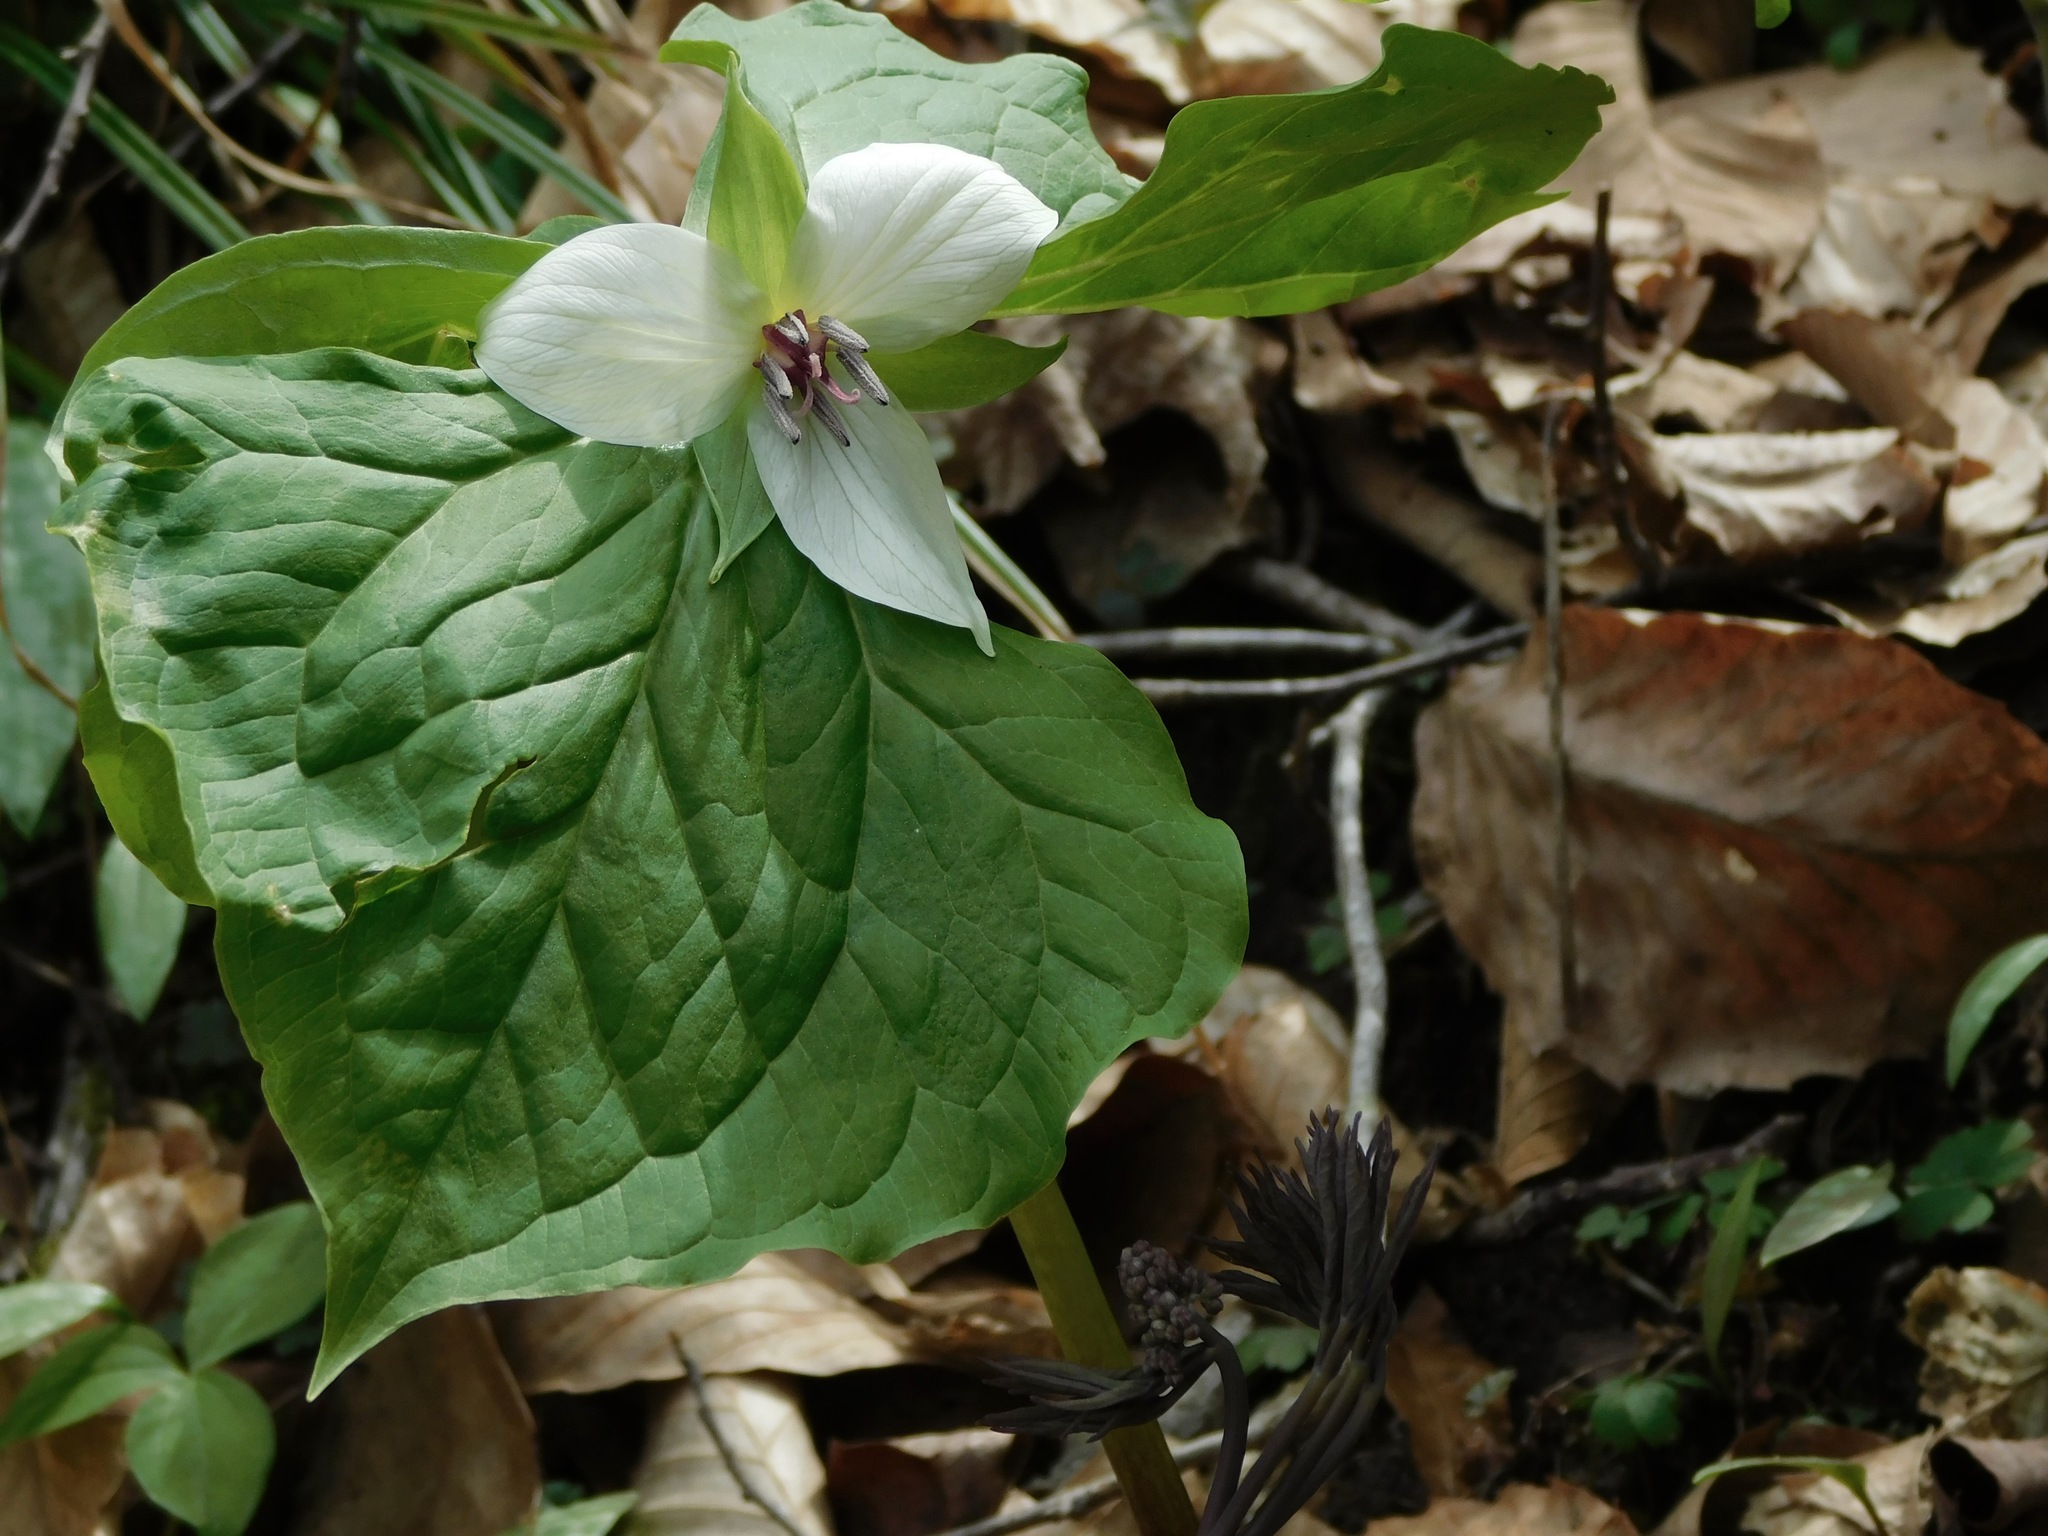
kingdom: Plantae
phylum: Tracheophyta
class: Liliopsida
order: Liliales
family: Melanthiaceae
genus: Trillium
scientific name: Trillium rugelii
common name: Ill-scented trillium
